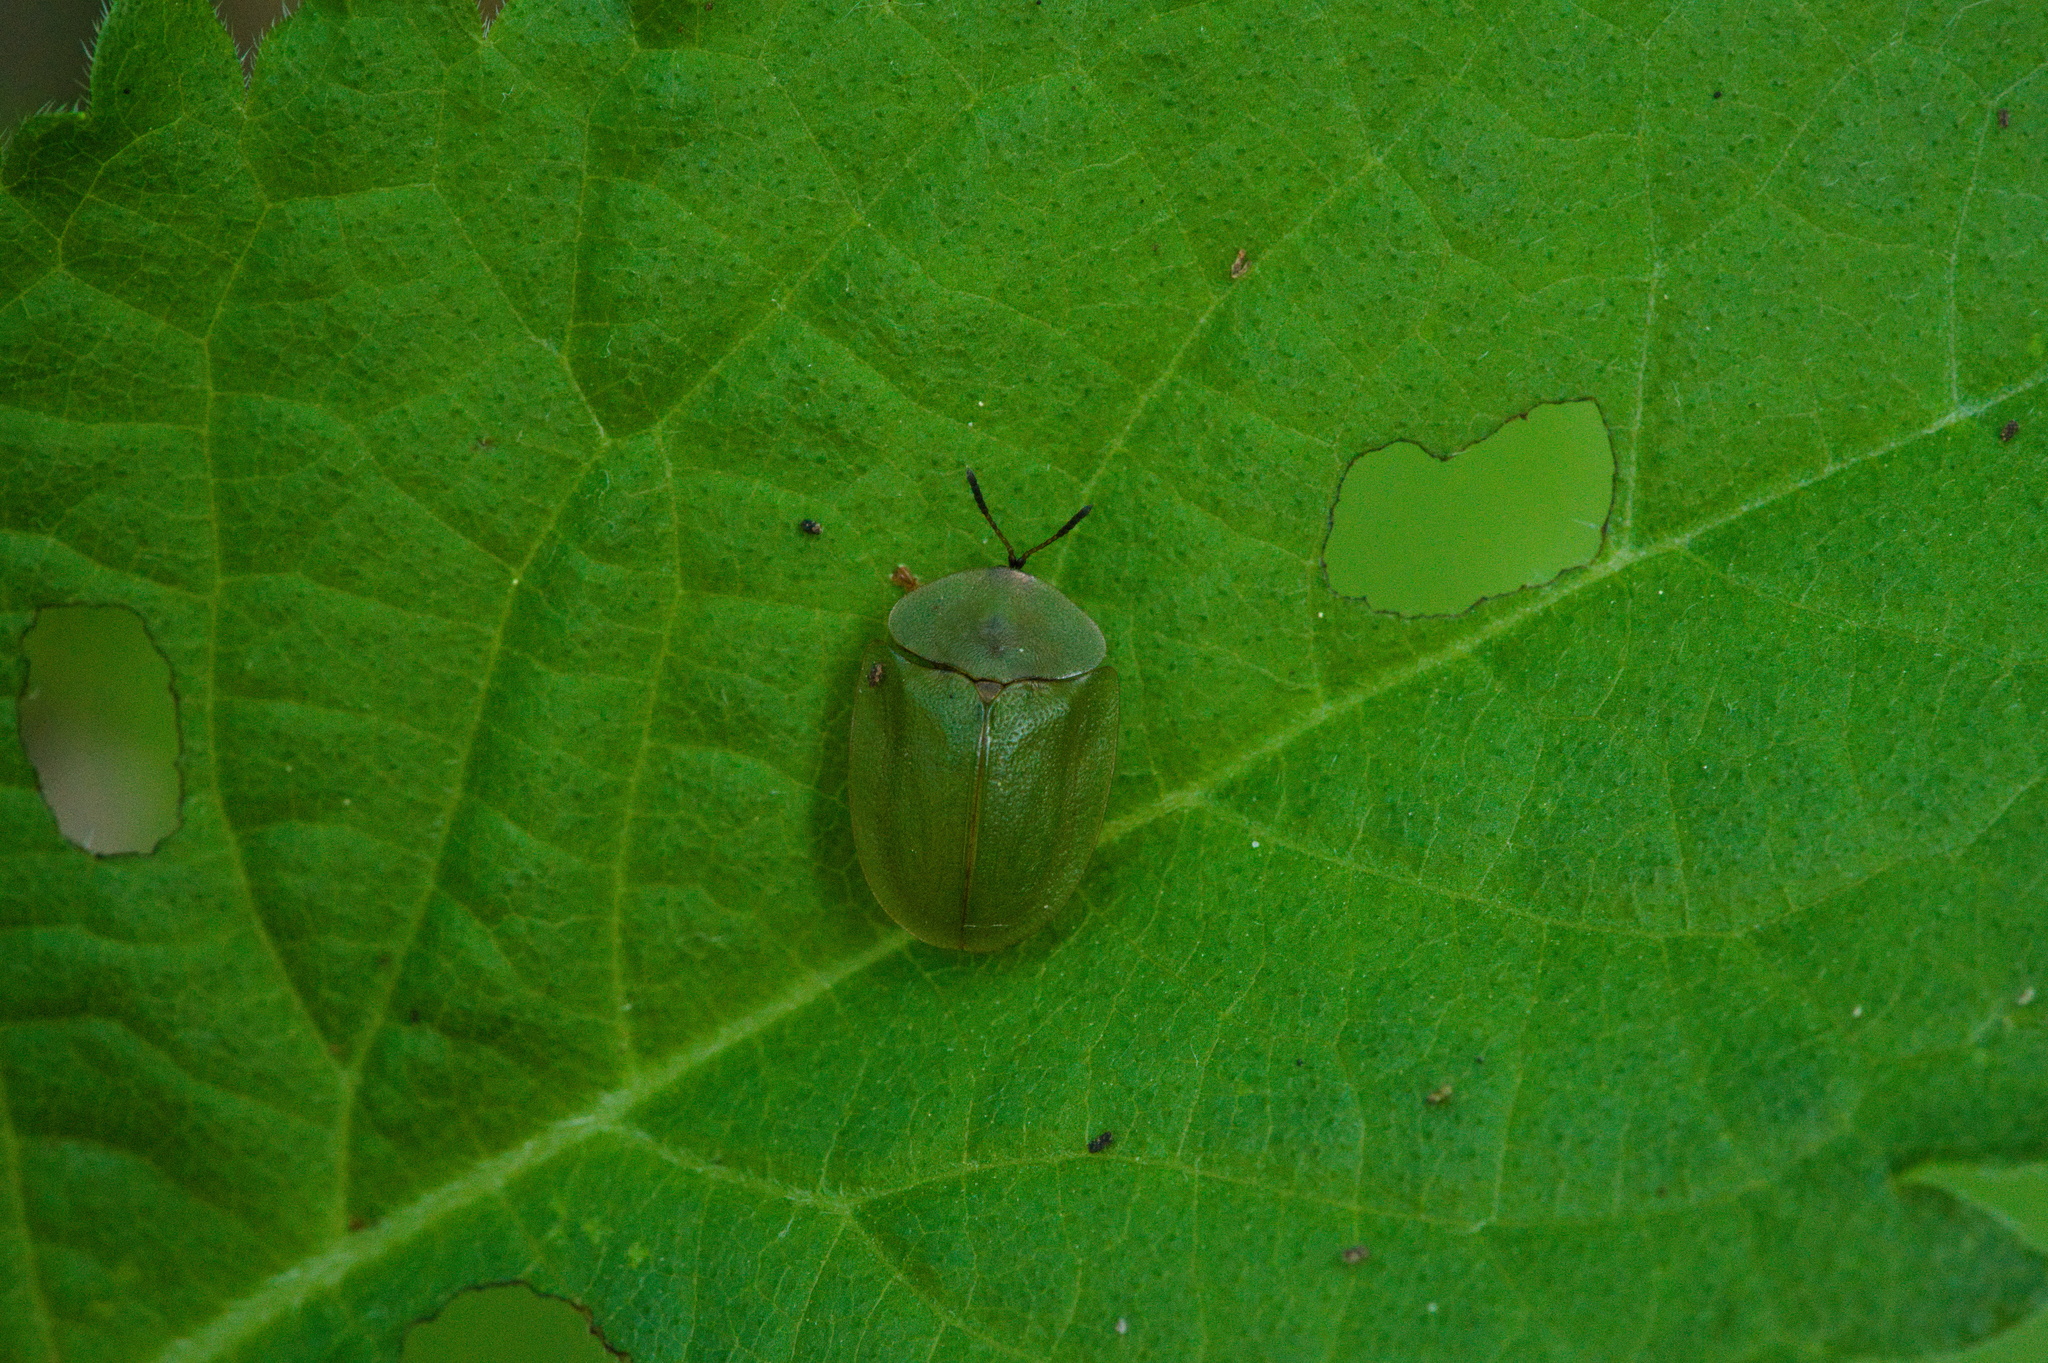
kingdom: Animalia
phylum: Arthropoda
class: Insecta
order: Coleoptera
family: Chrysomelidae
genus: Cassida
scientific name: Cassida viridis
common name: Green tortoise beetle
